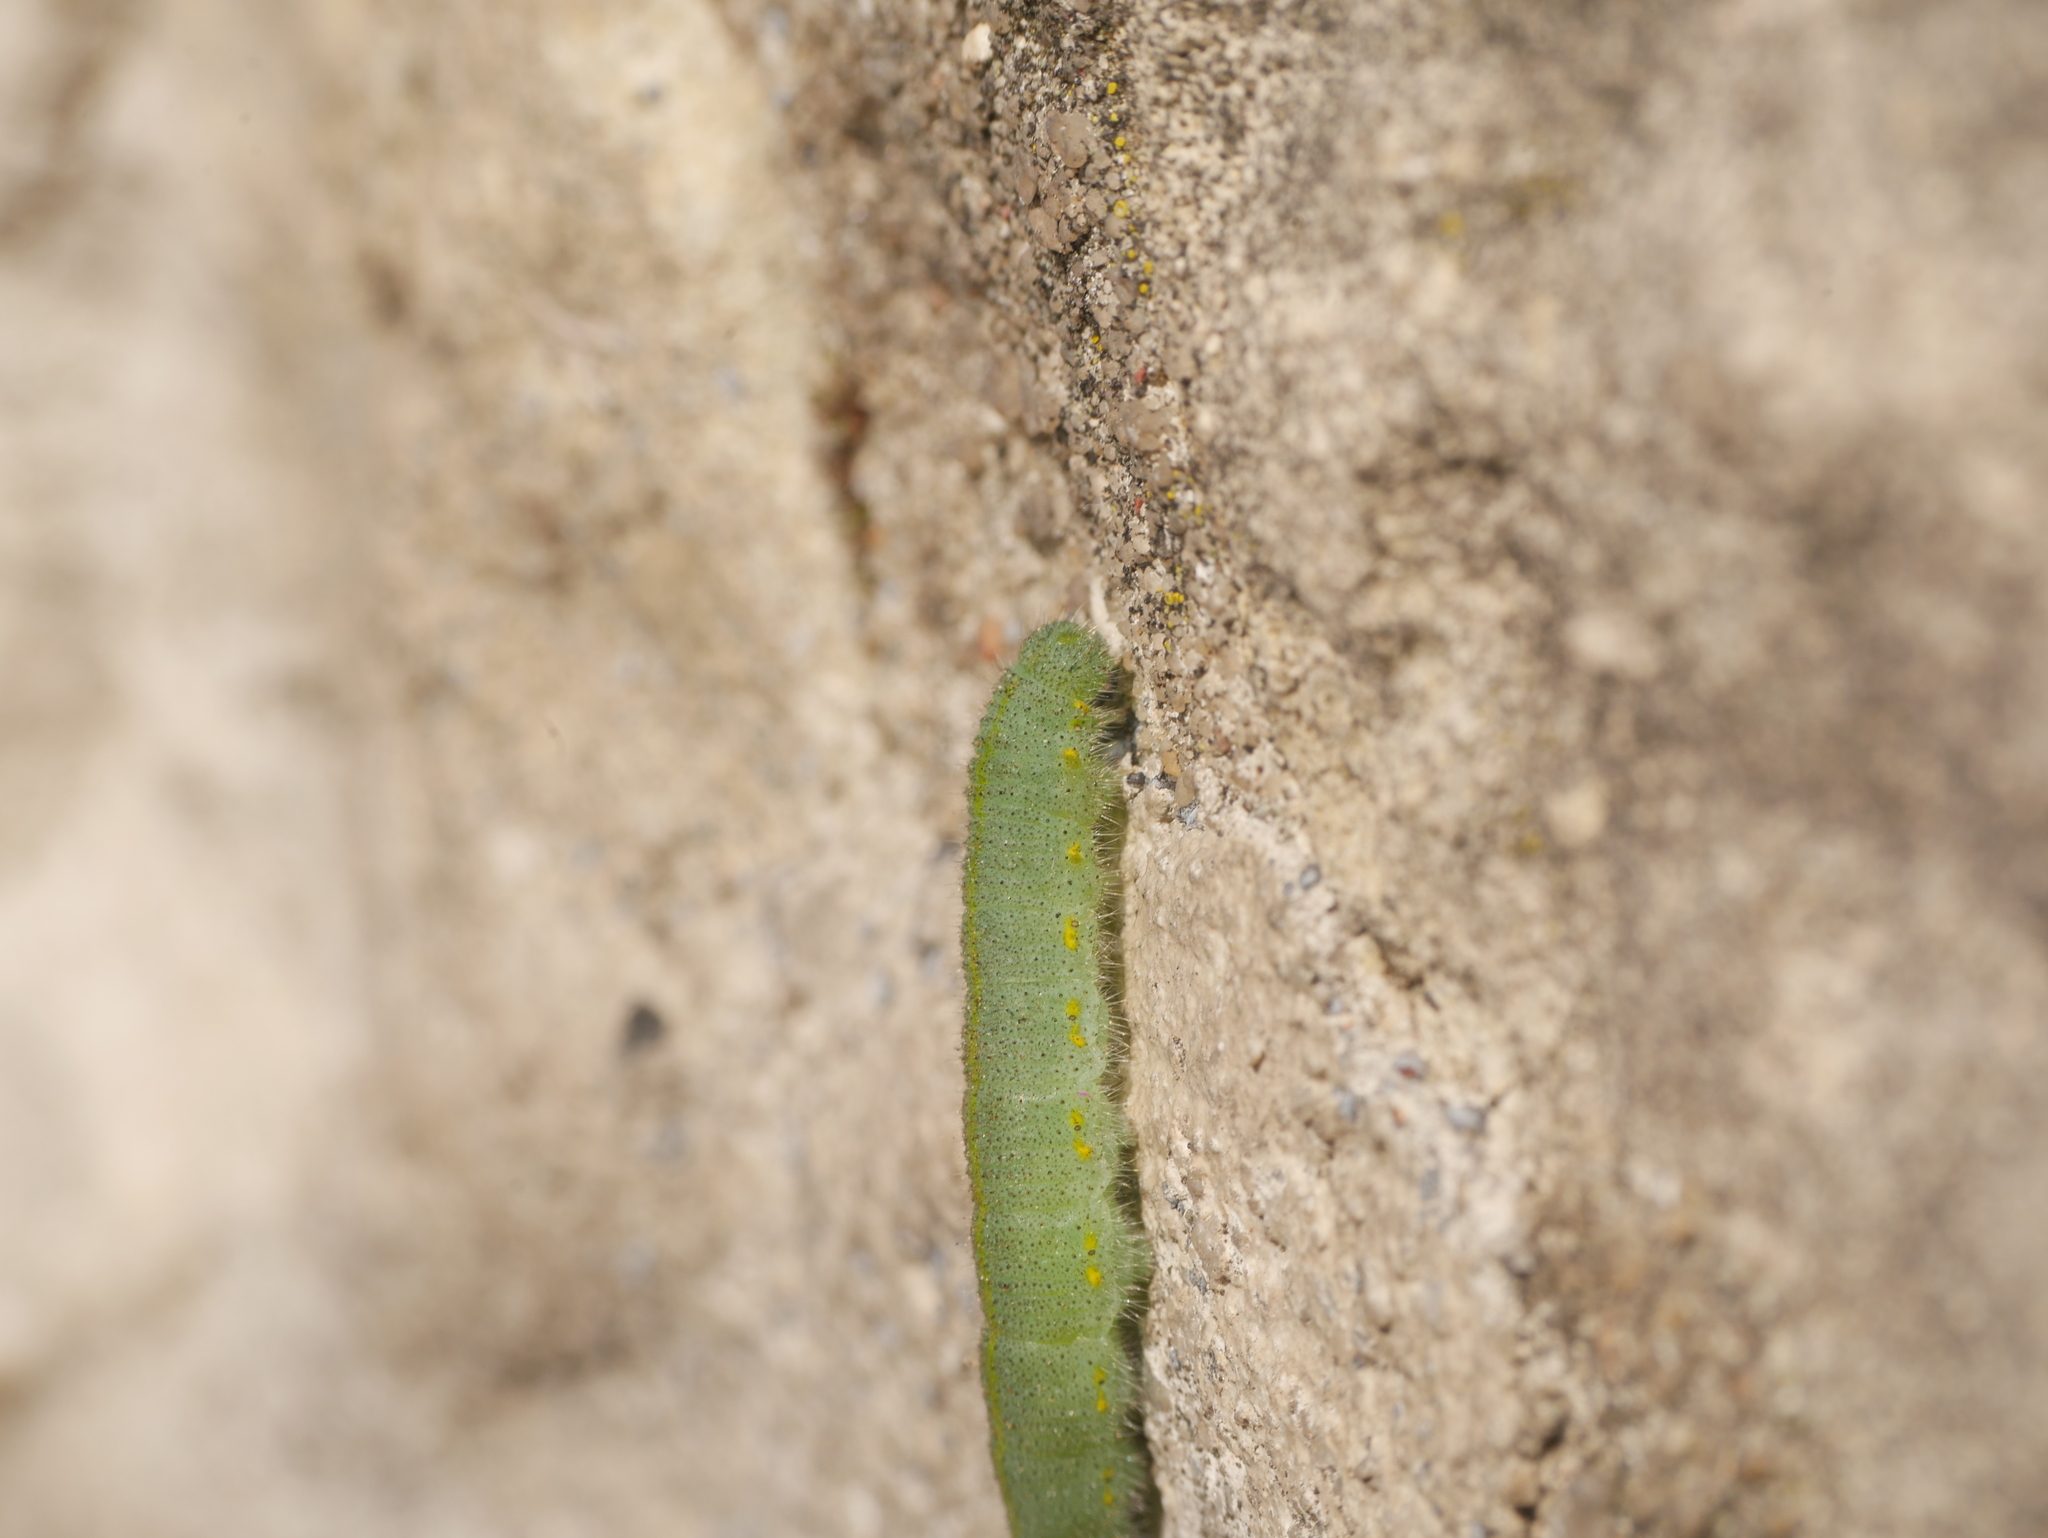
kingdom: Animalia
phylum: Arthropoda
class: Insecta
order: Lepidoptera
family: Pieridae
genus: Pieris
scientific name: Pieris rapae
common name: Small white
